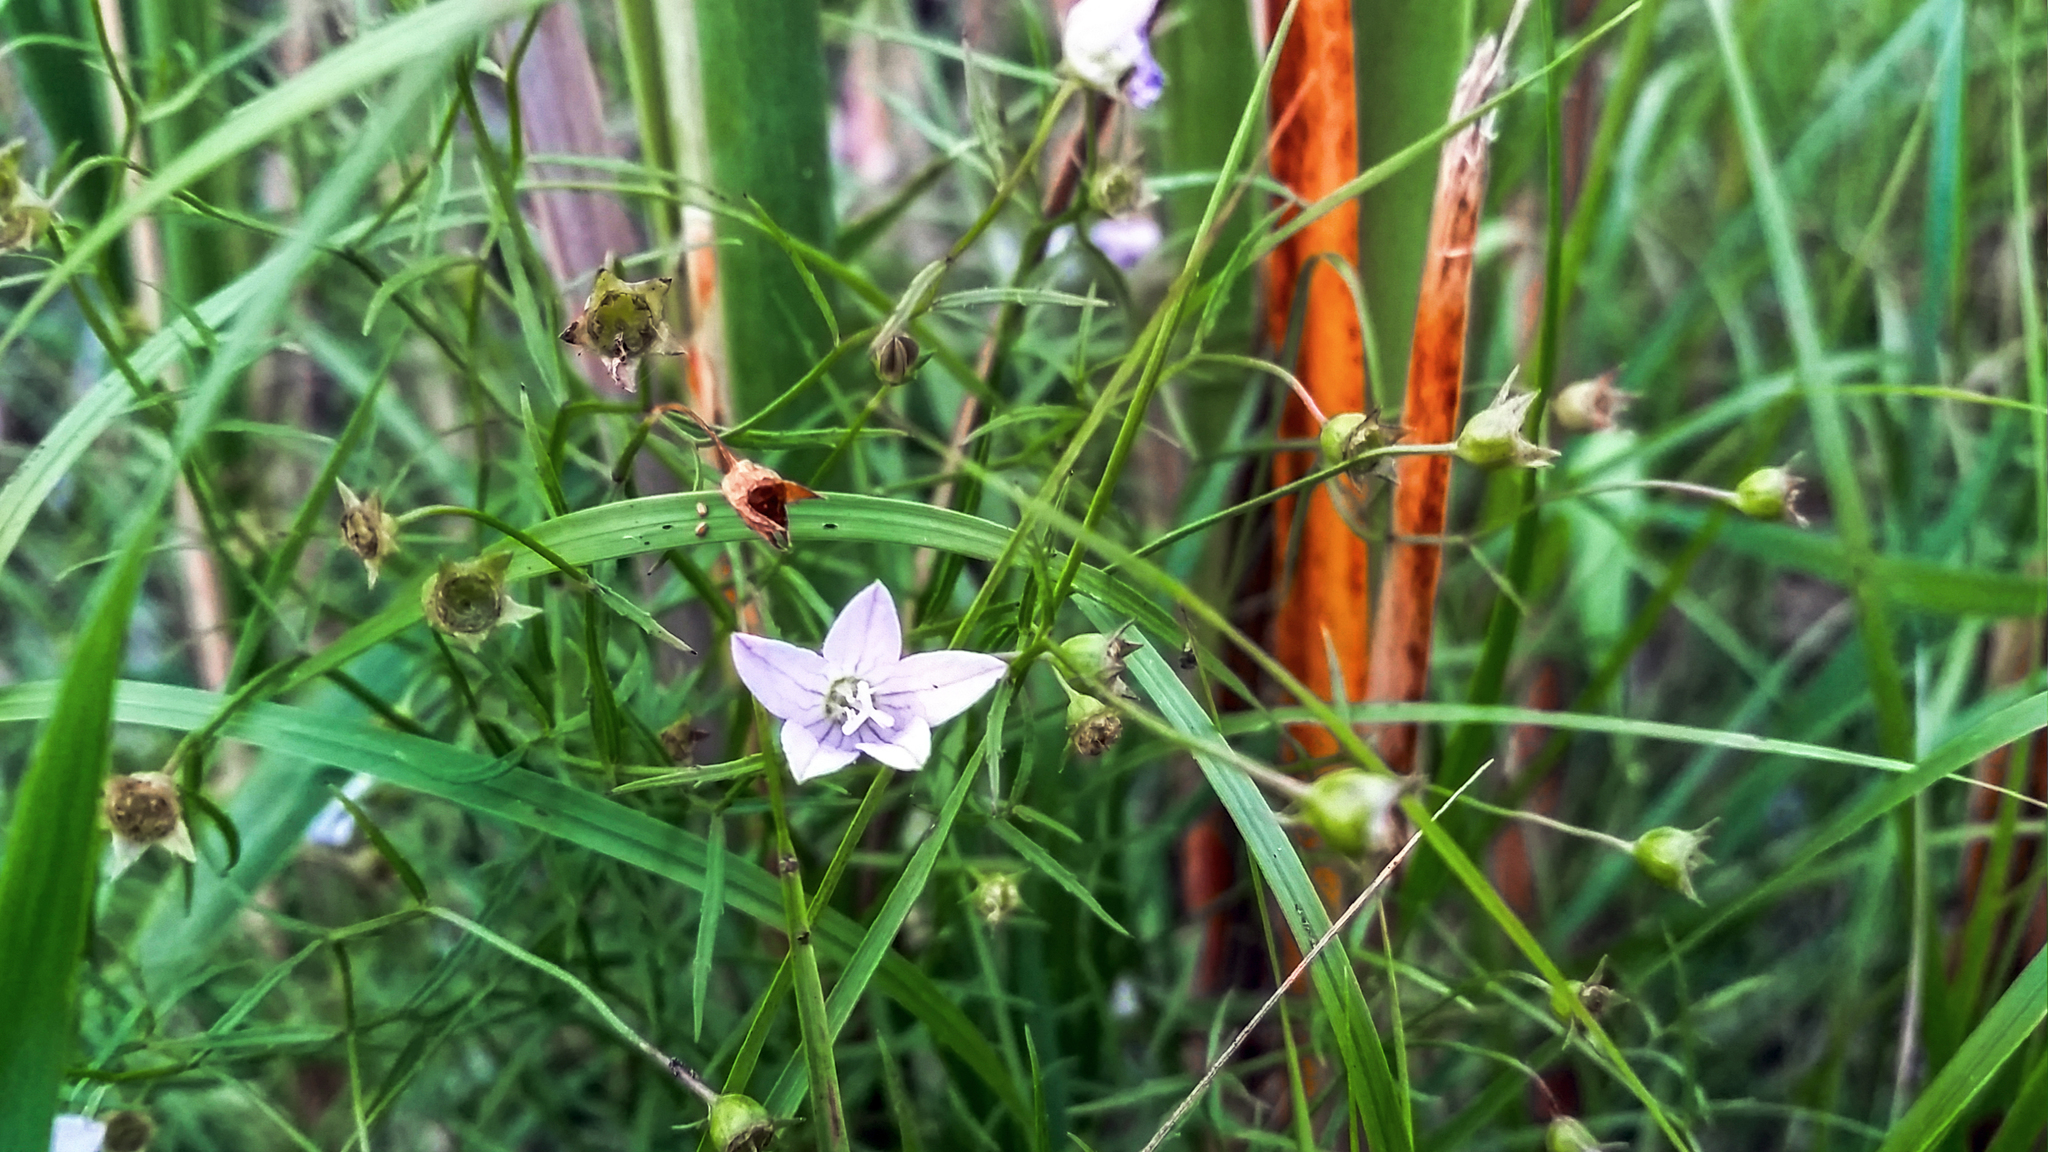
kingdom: Plantae
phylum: Tracheophyta
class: Magnoliopsida
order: Asterales
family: Campanulaceae
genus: Palustricodon
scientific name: Palustricodon aparinoides
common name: Bedstraw bellflower
